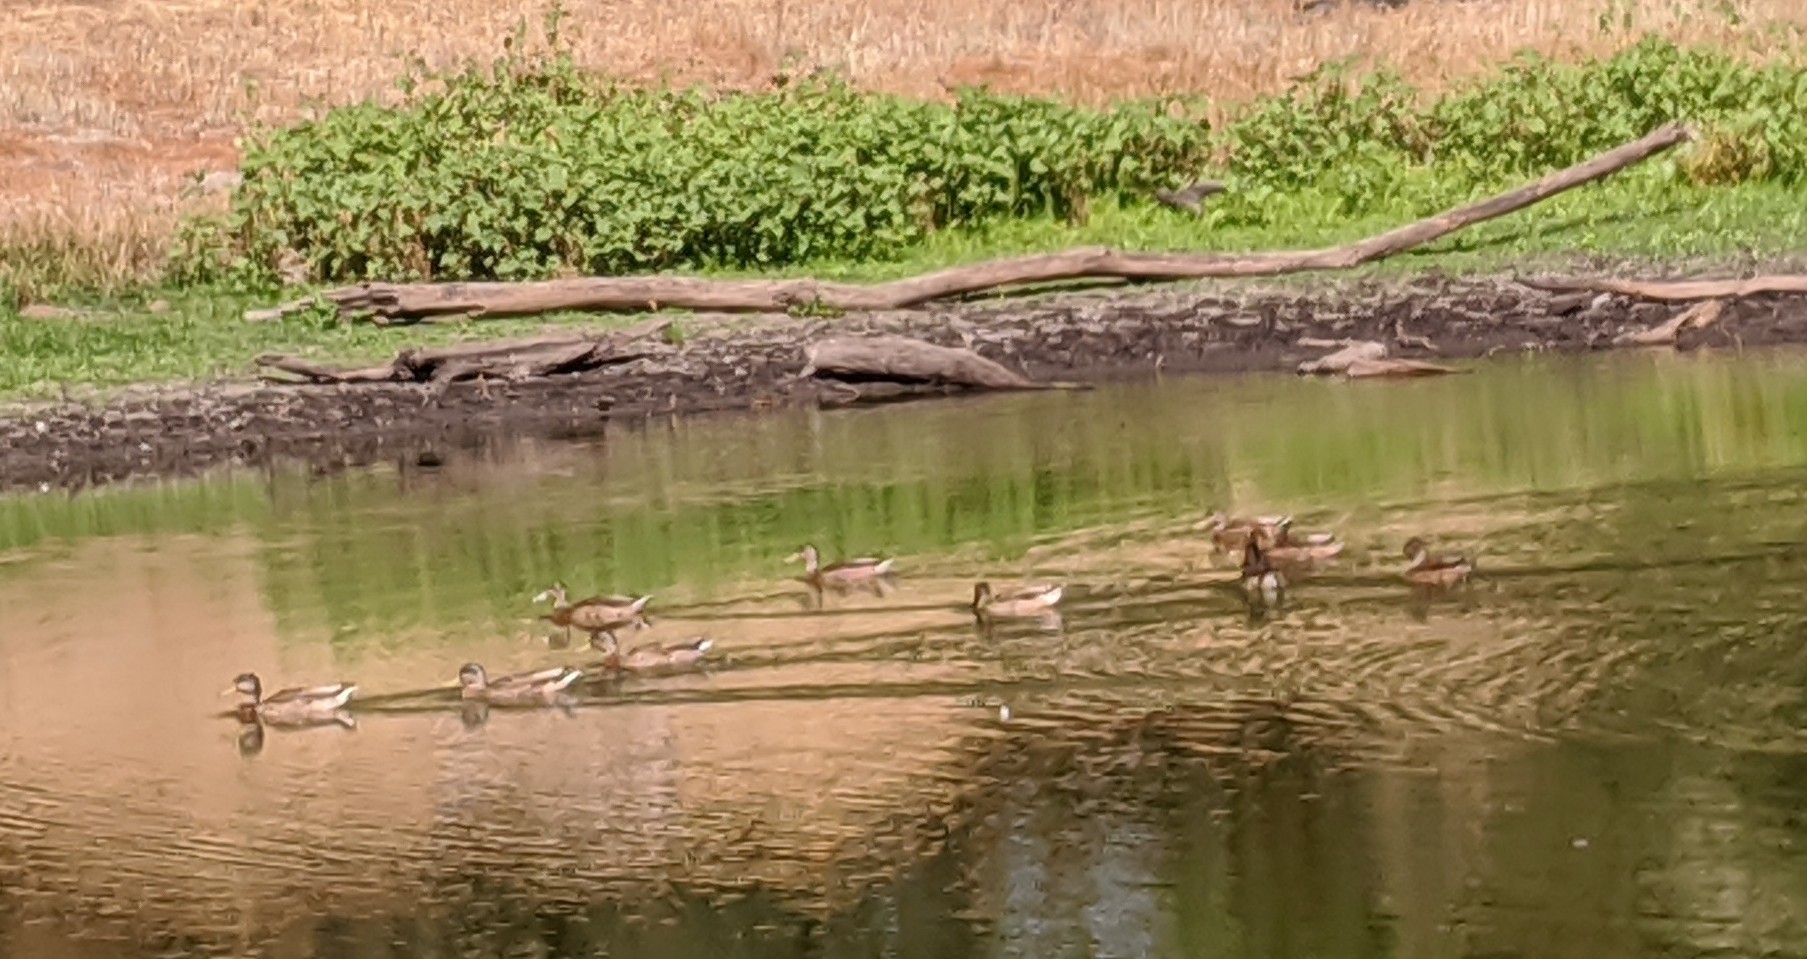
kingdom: Animalia
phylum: Chordata
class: Aves
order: Anseriformes
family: Anatidae
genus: Anas
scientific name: Anas platyrhynchos
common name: Mallard
